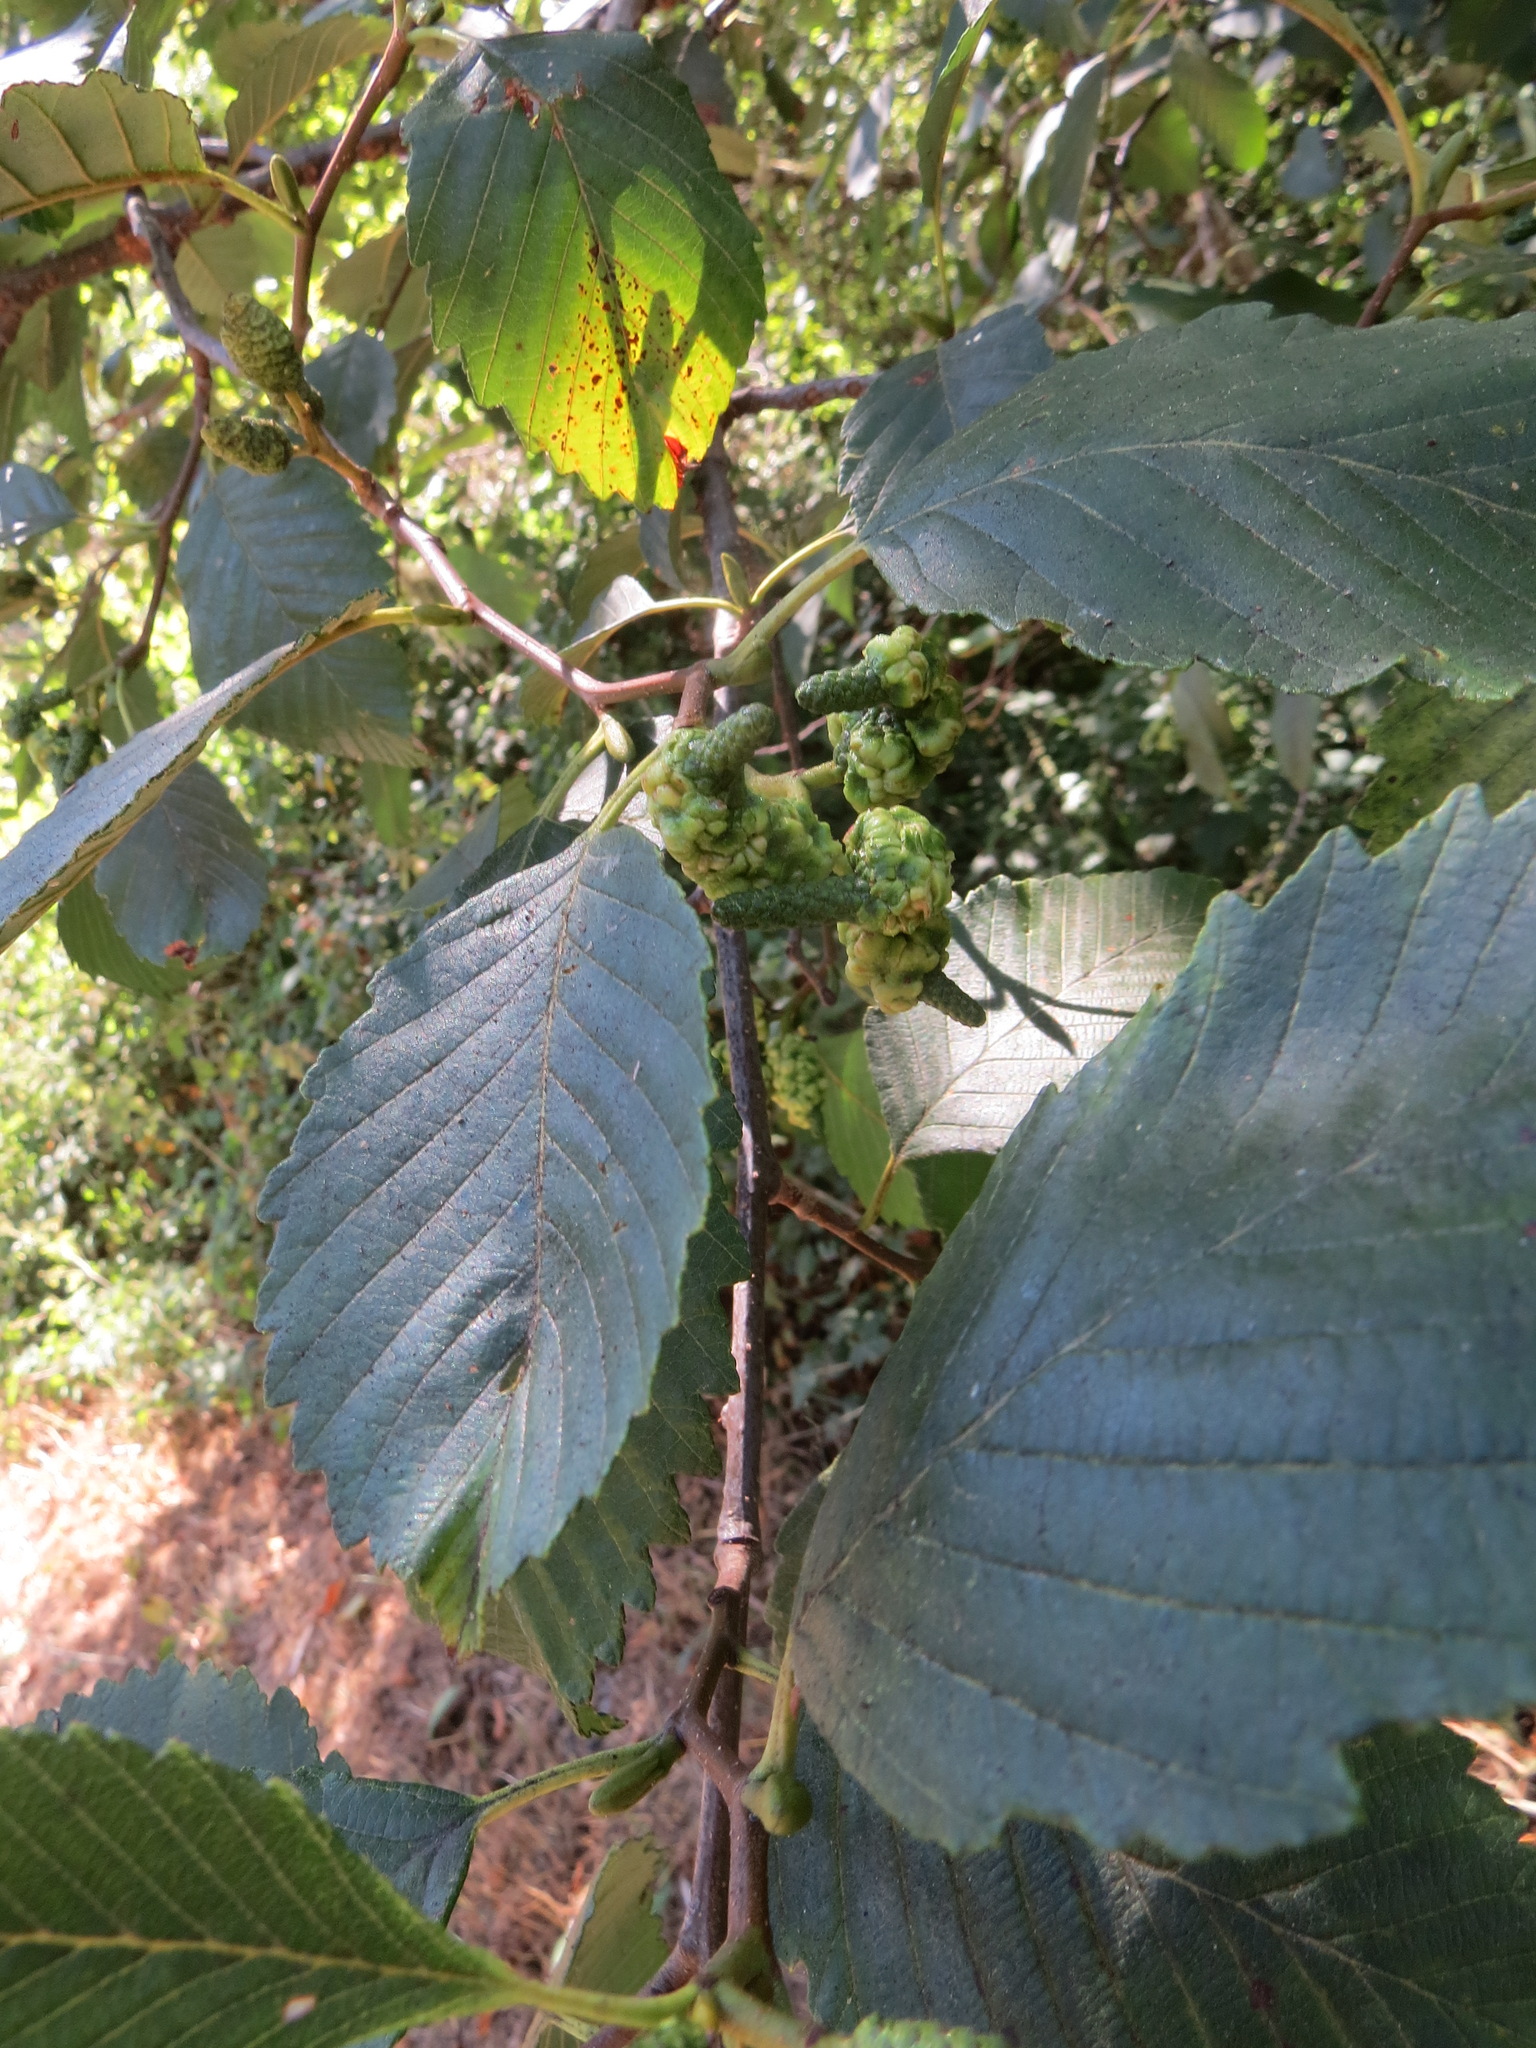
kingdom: Animalia
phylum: Arthropoda
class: Insecta
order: Diptera
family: Cecidomyiidae
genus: Dasineura
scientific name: Dasineura
